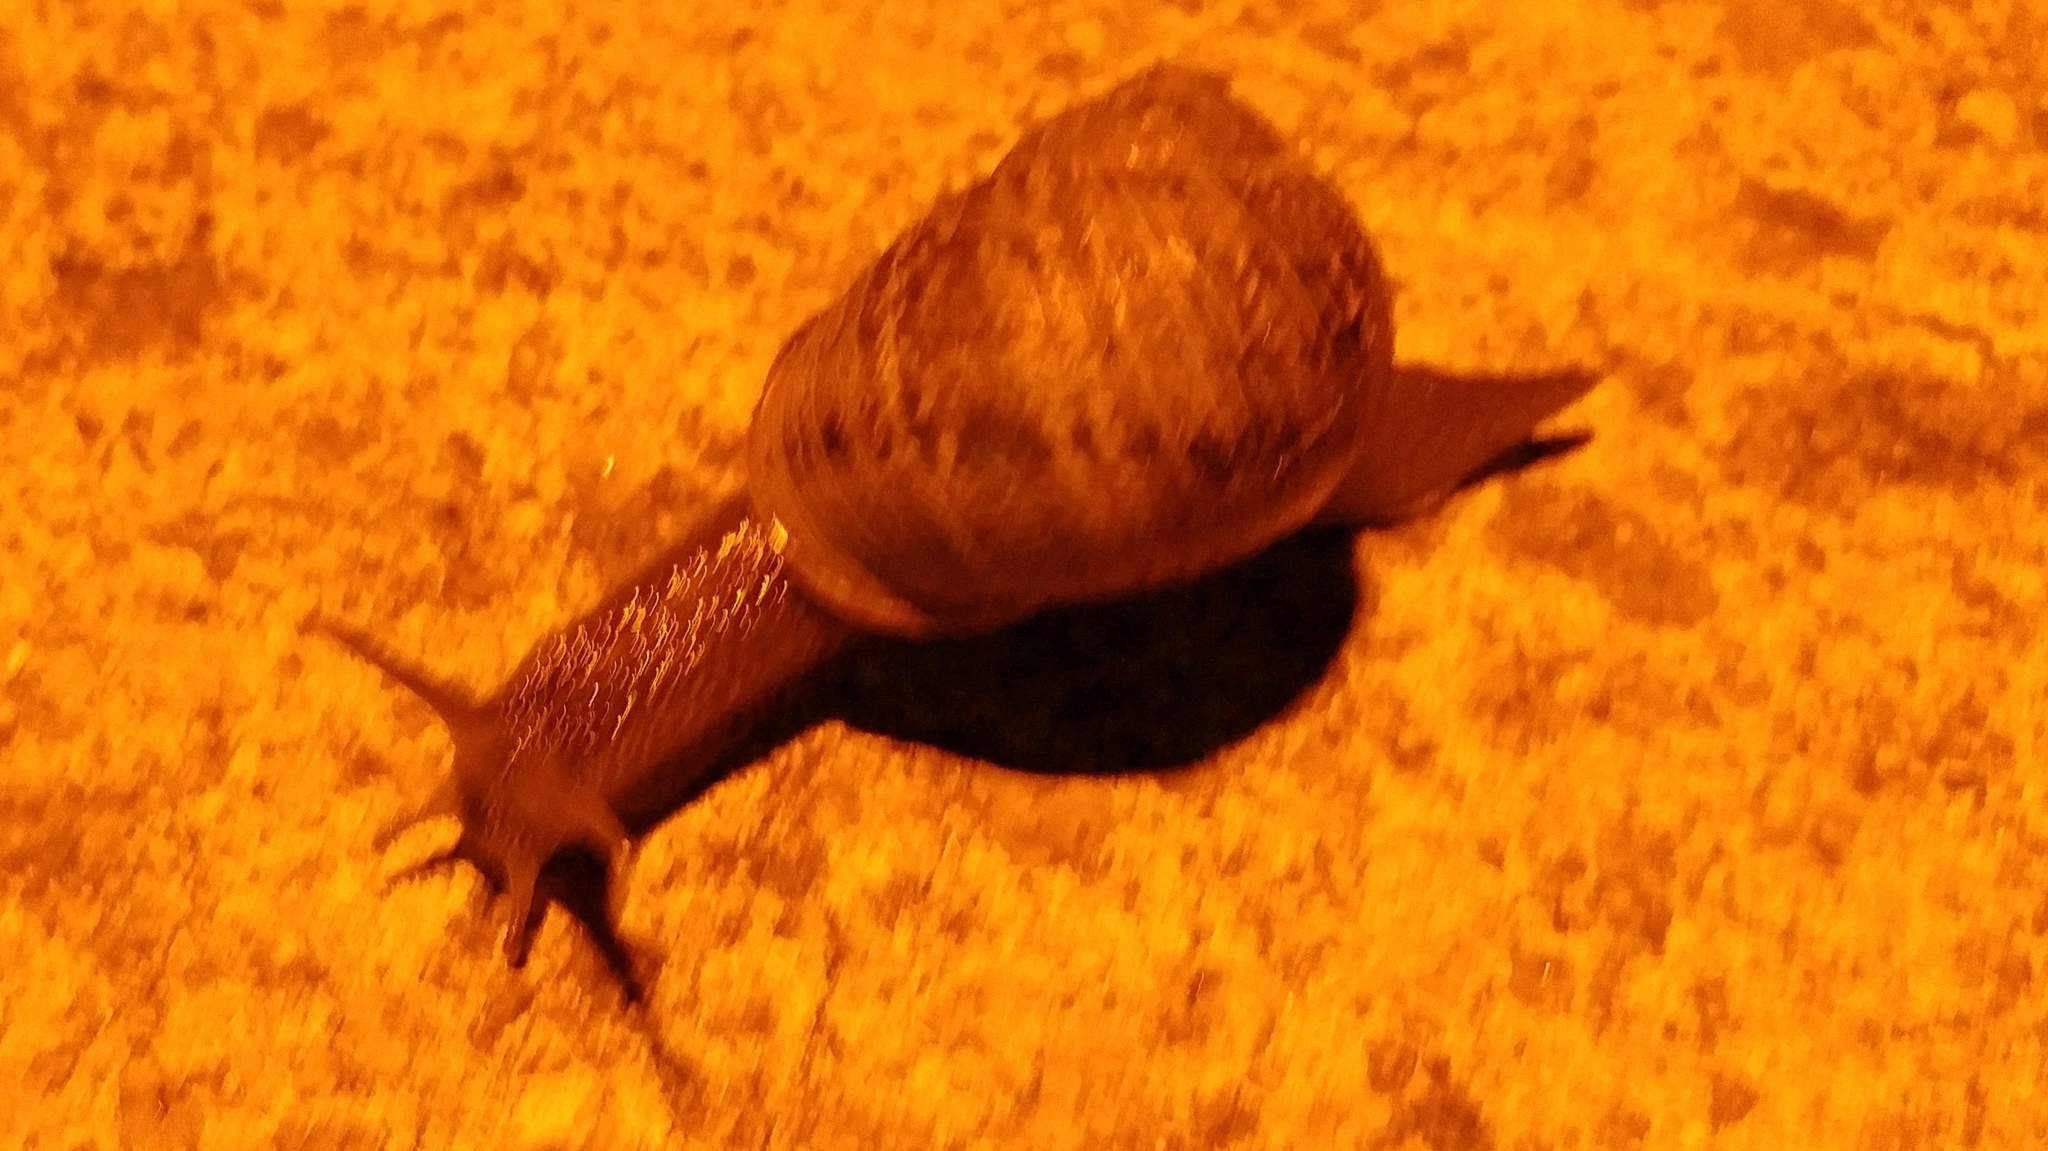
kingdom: Animalia
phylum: Mollusca
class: Gastropoda
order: Stylommatophora
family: Helicidae
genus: Cornu
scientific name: Cornu aspersum
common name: Brown garden snail
